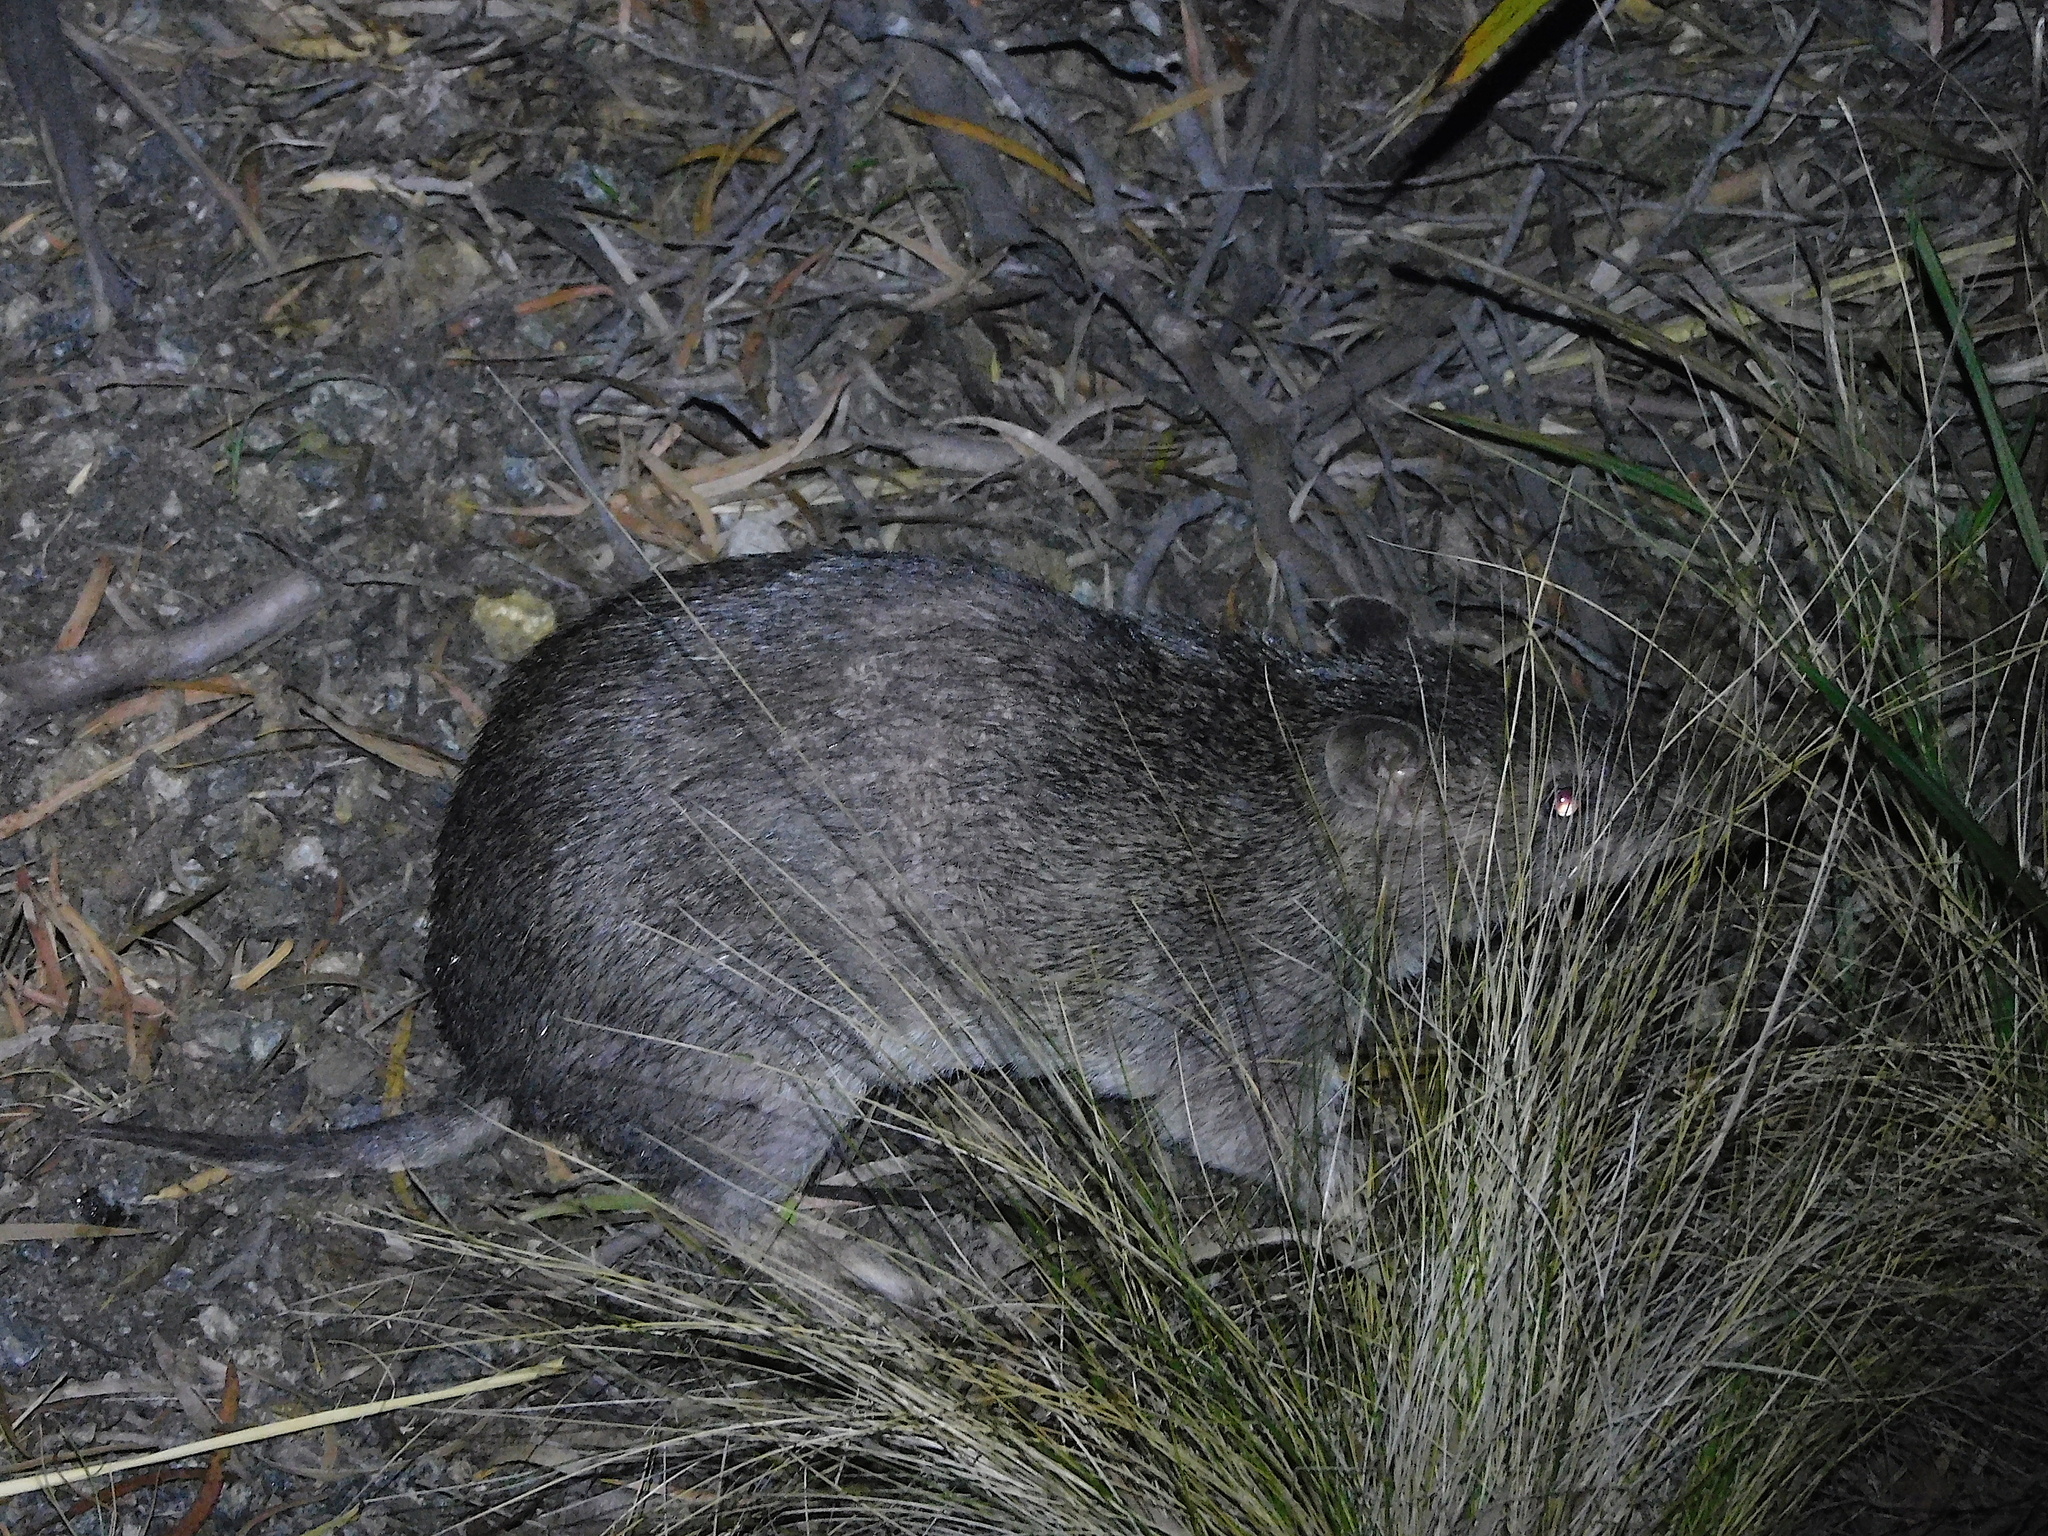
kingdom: Animalia
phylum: Chordata
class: Mammalia
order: Peramelemorphia
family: Peramelidae
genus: Isoodon
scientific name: Isoodon obesulus
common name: Southern brown bandicoot
